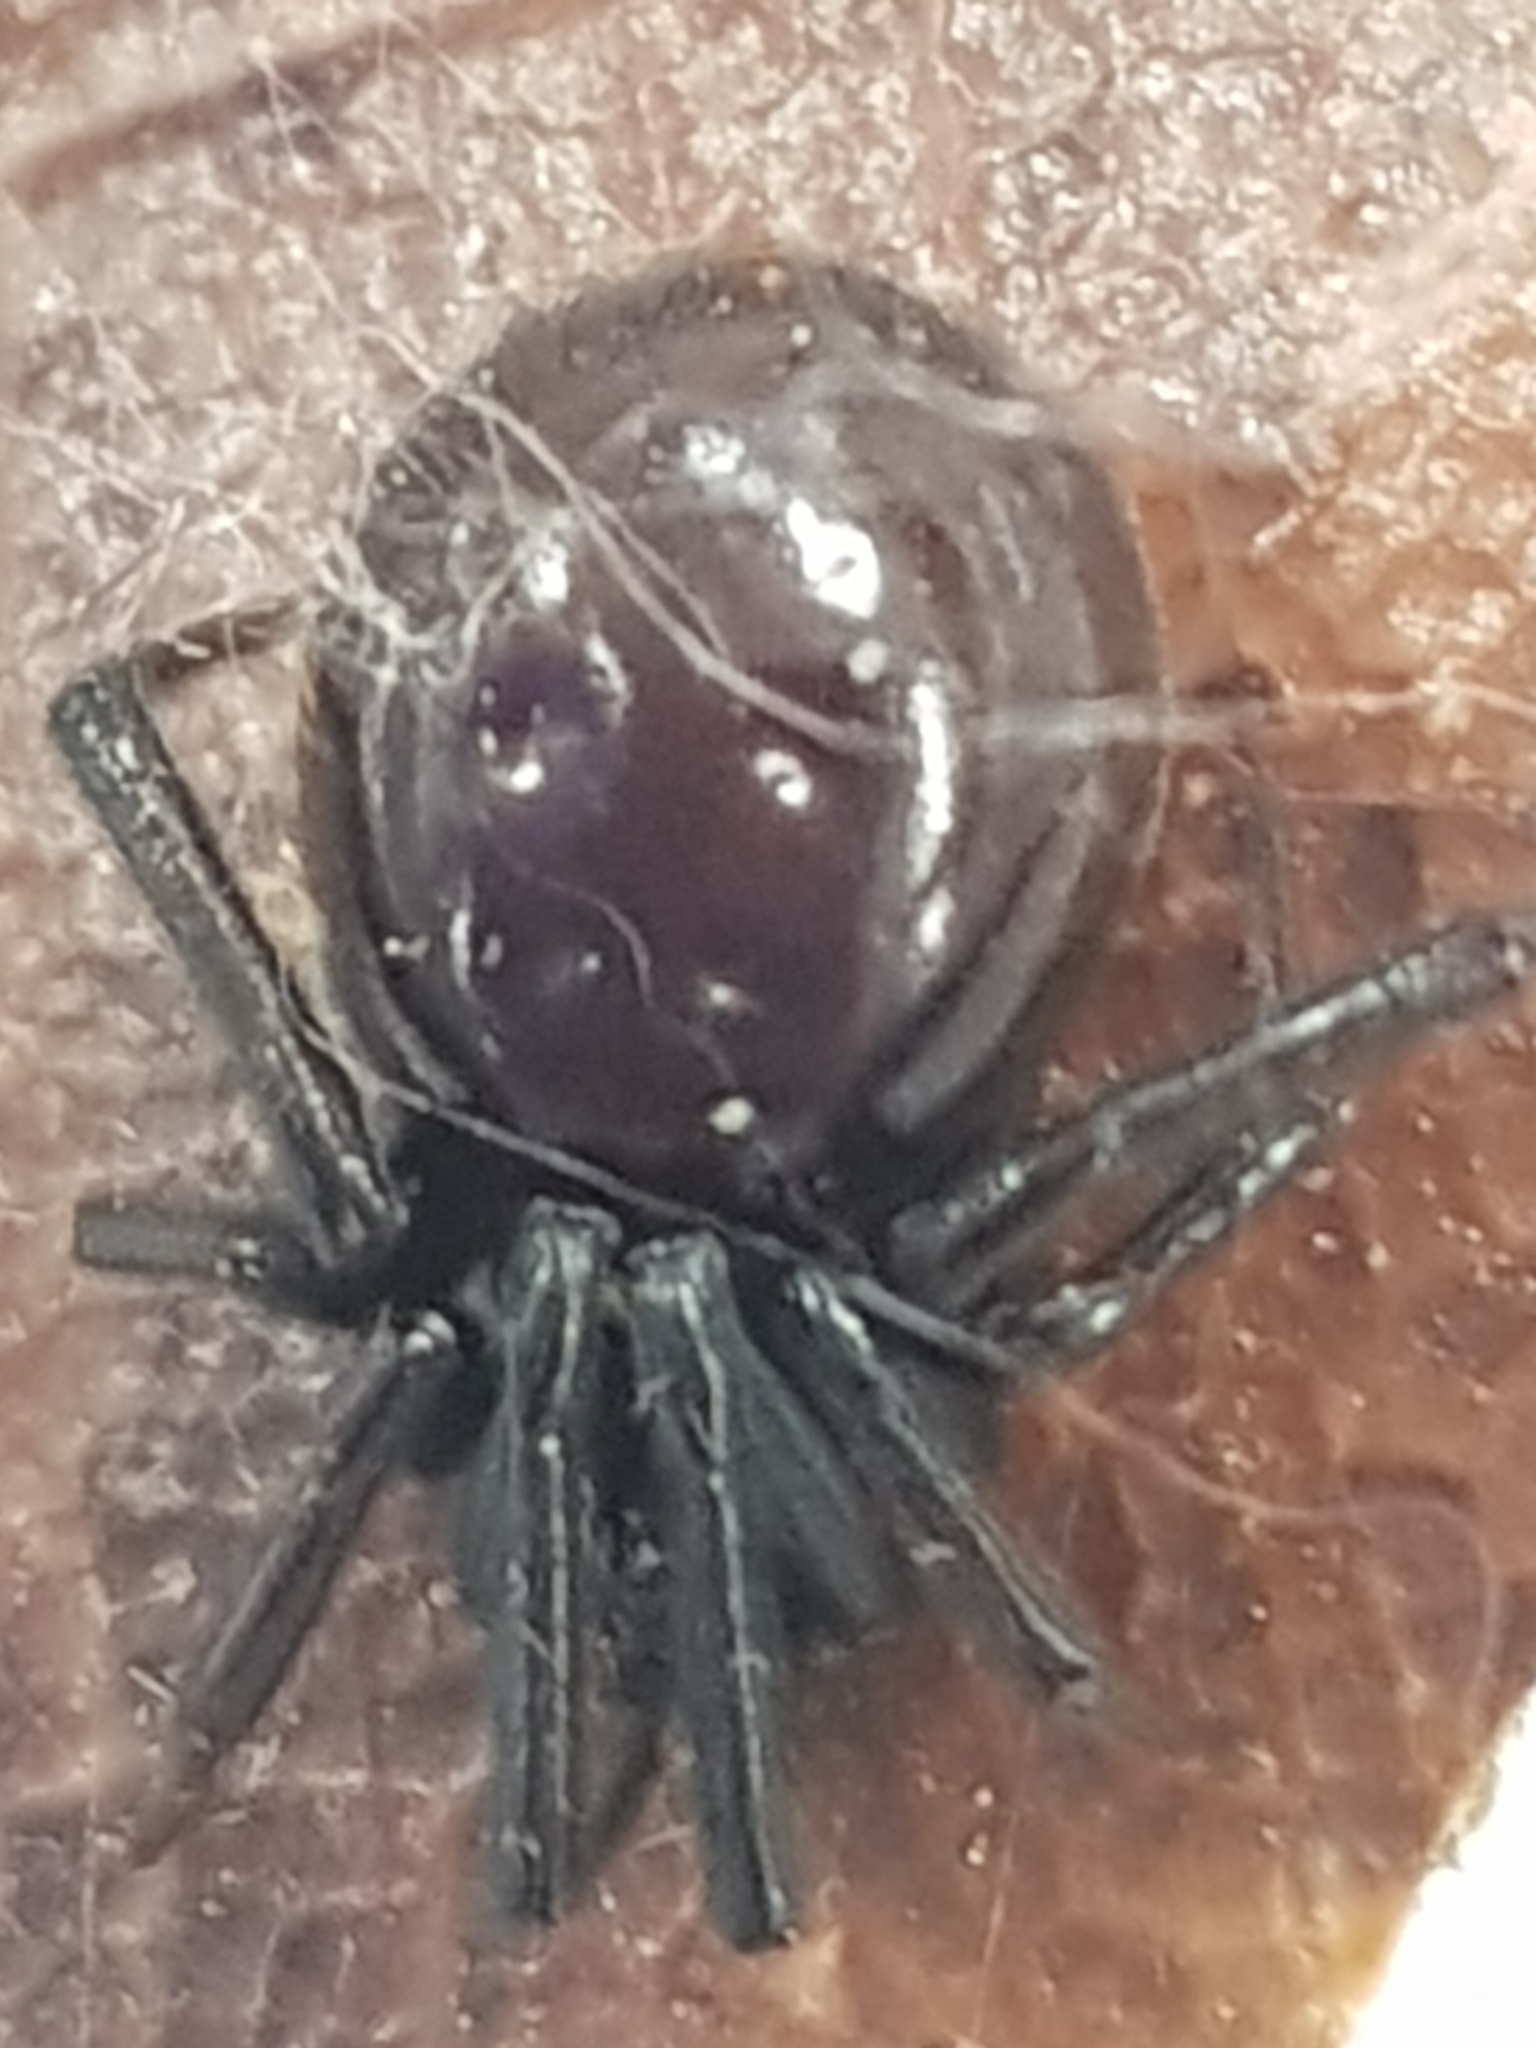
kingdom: Animalia
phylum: Arthropoda
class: Arachnida
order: Araneae
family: Theridiidae
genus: Steatoda
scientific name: Steatoda capensis
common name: Cobweb weaver
